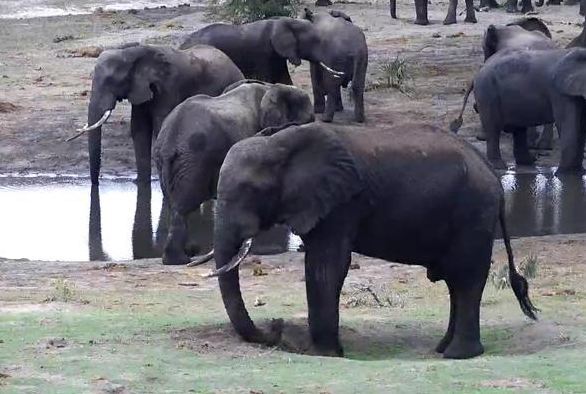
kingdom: Animalia
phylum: Chordata
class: Mammalia
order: Proboscidea
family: Elephantidae
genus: Loxodonta
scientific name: Loxodonta africana
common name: African elephant
